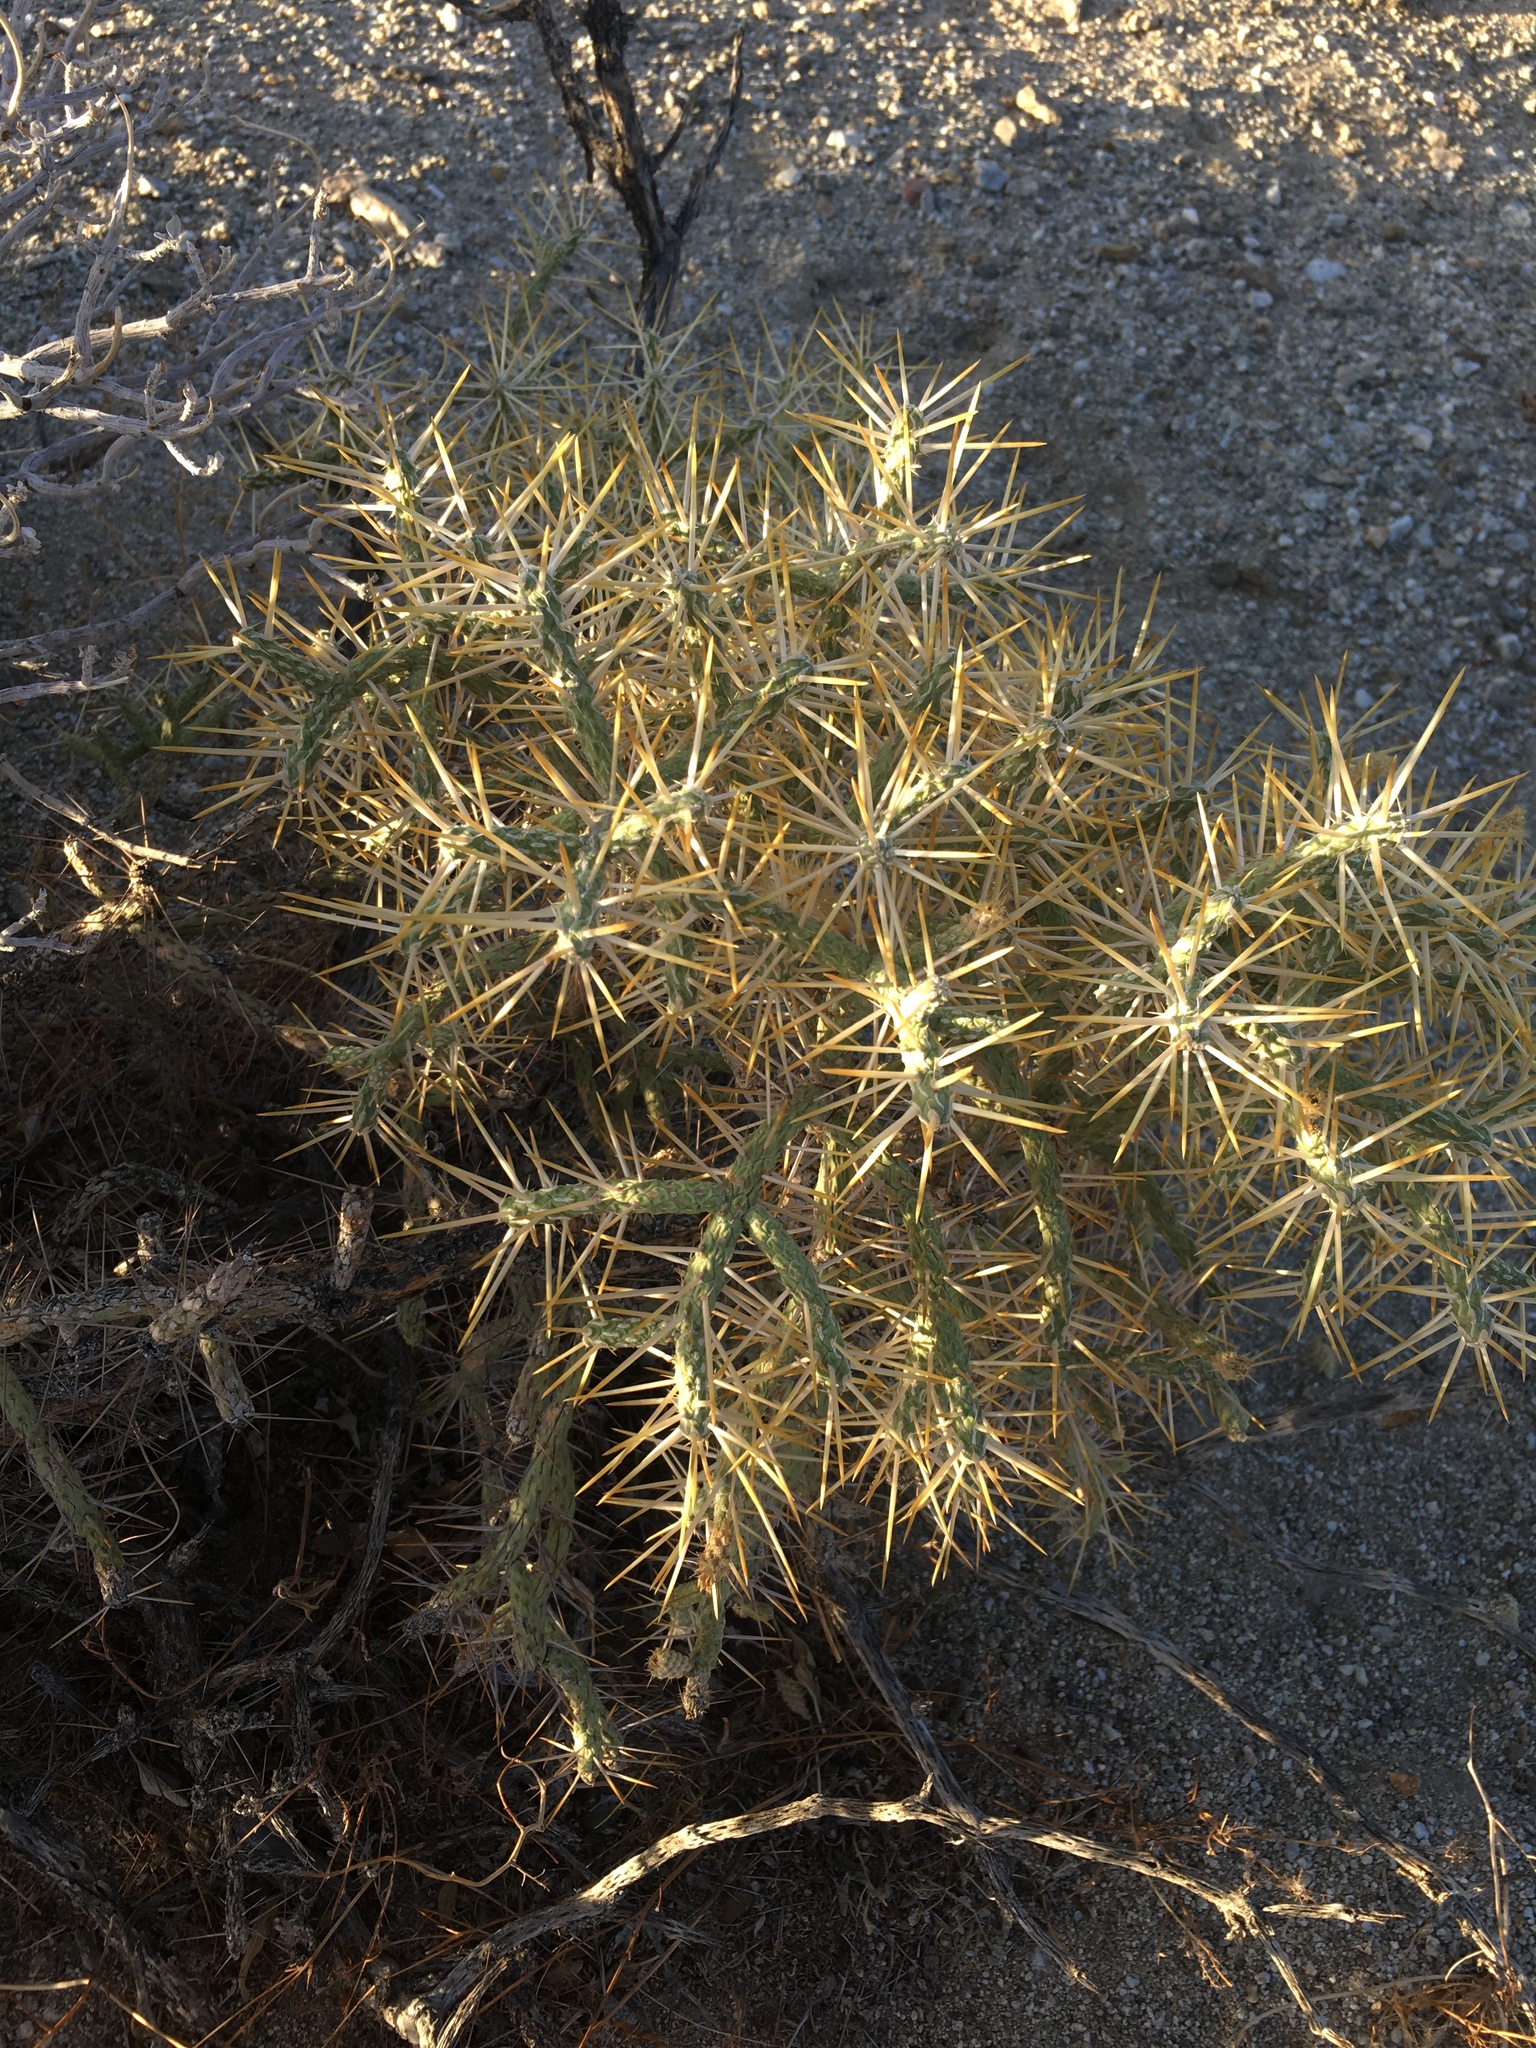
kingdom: Plantae
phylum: Tracheophyta
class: Magnoliopsida
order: Caryophyllales
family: Cactaceae
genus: Cylindropuntia
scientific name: Cylindropuntia ramosissima
